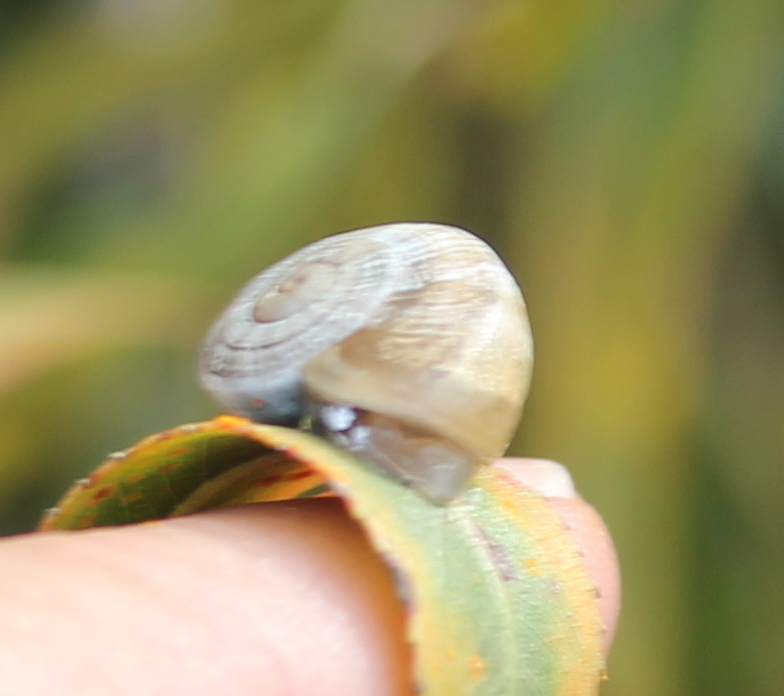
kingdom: Animalia
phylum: Mollusca
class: Gastropoda
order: Stylommatophora
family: Helicidae
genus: Otala
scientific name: Otala lactea
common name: Milk snail
